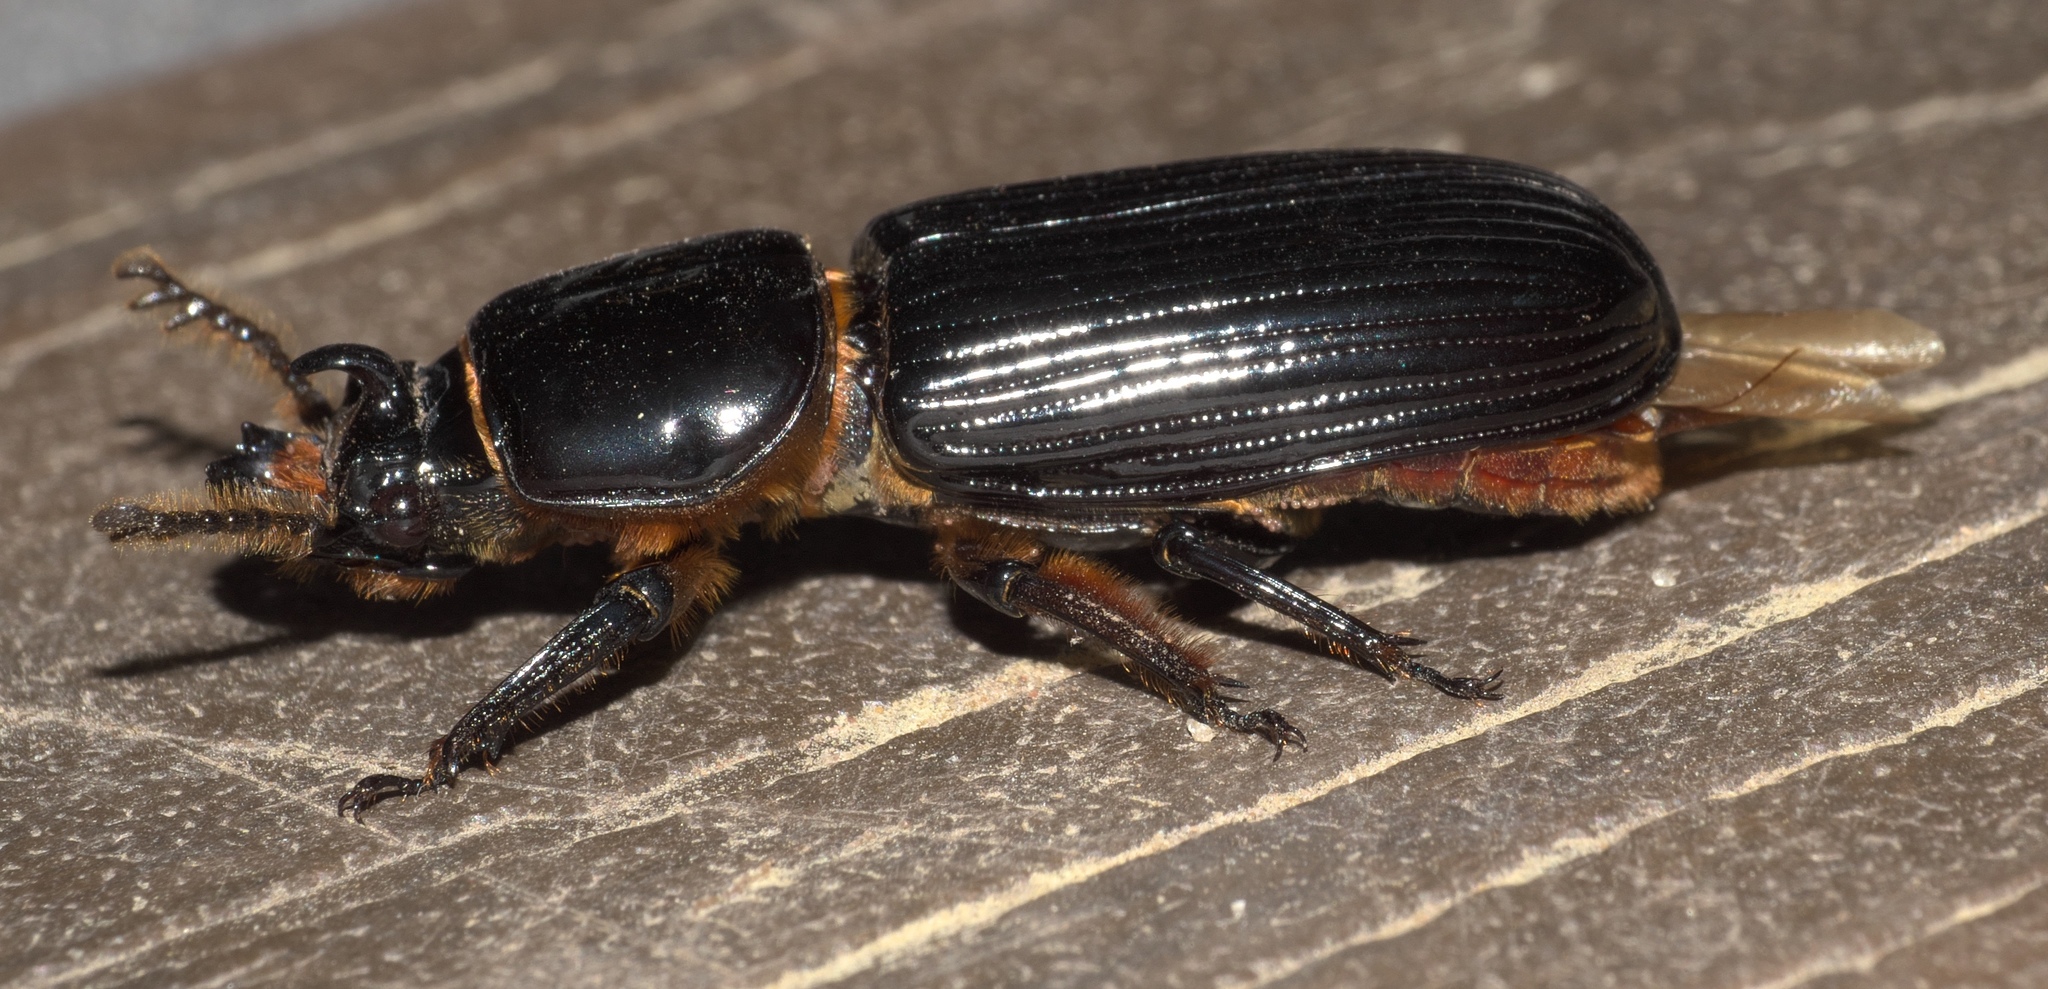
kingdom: Animalia
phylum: Arthropoda
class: Insecta
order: Coleoptera
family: Passalidae
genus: Odontotaenius
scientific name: Odontotaenius disjunctus
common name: Patent leather beetle
